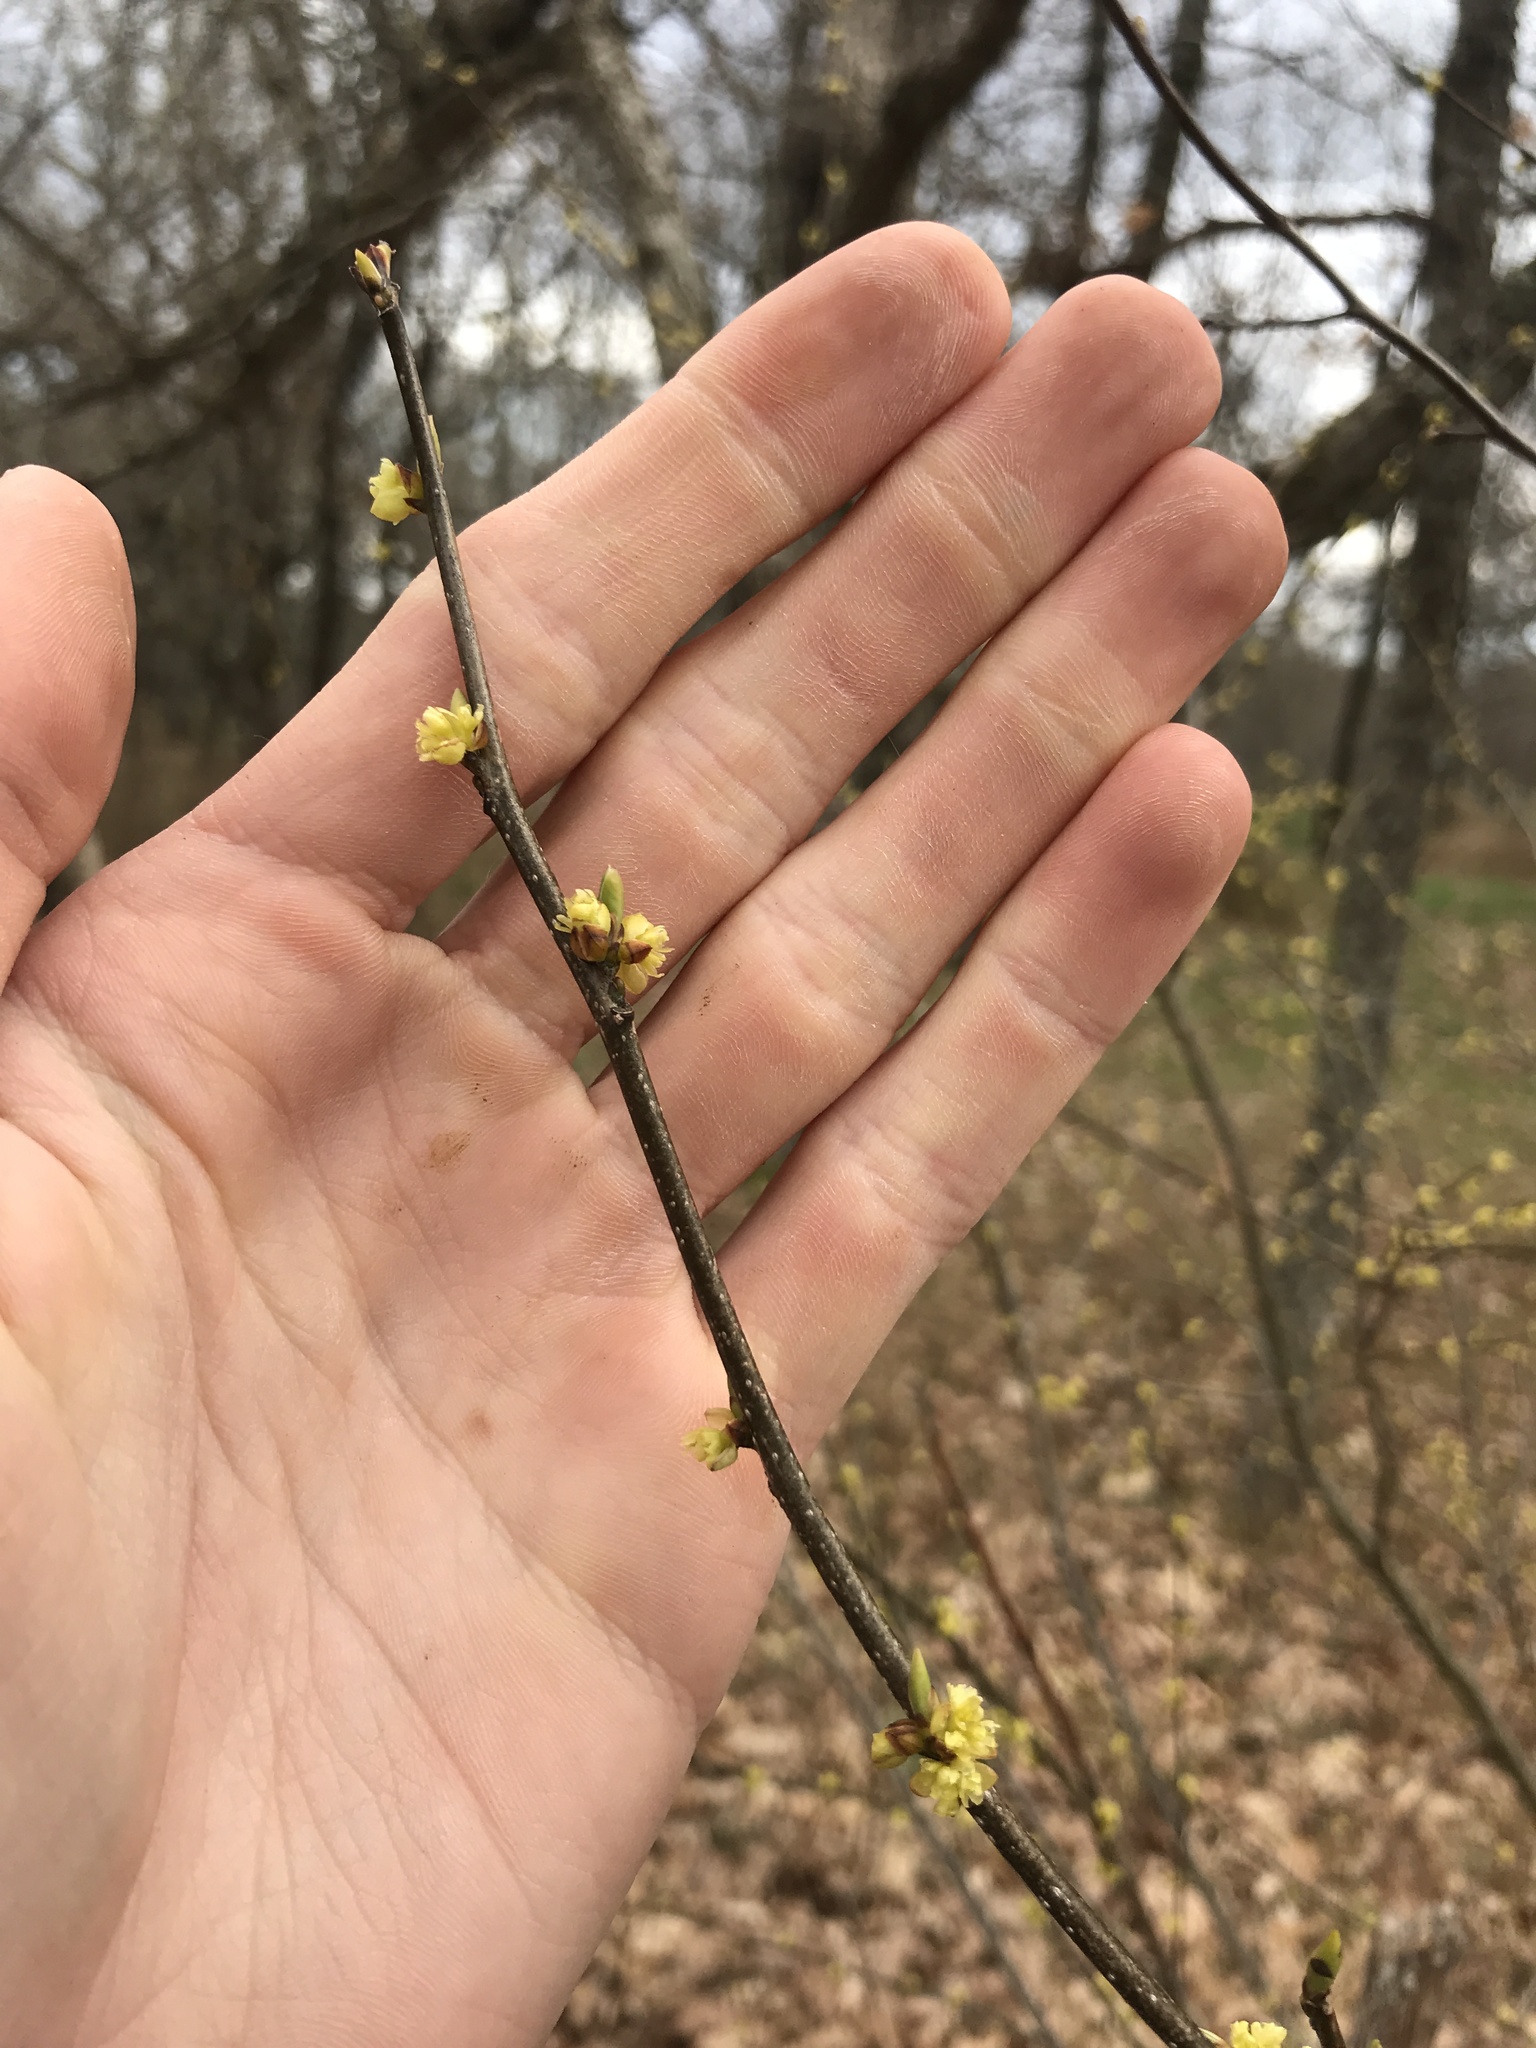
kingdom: Plantae
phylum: Tracheophyta
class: Magnoliopsida
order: Laurales
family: Lauraceae
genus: Lindera
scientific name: Lindera benzoin
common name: Spicebush
